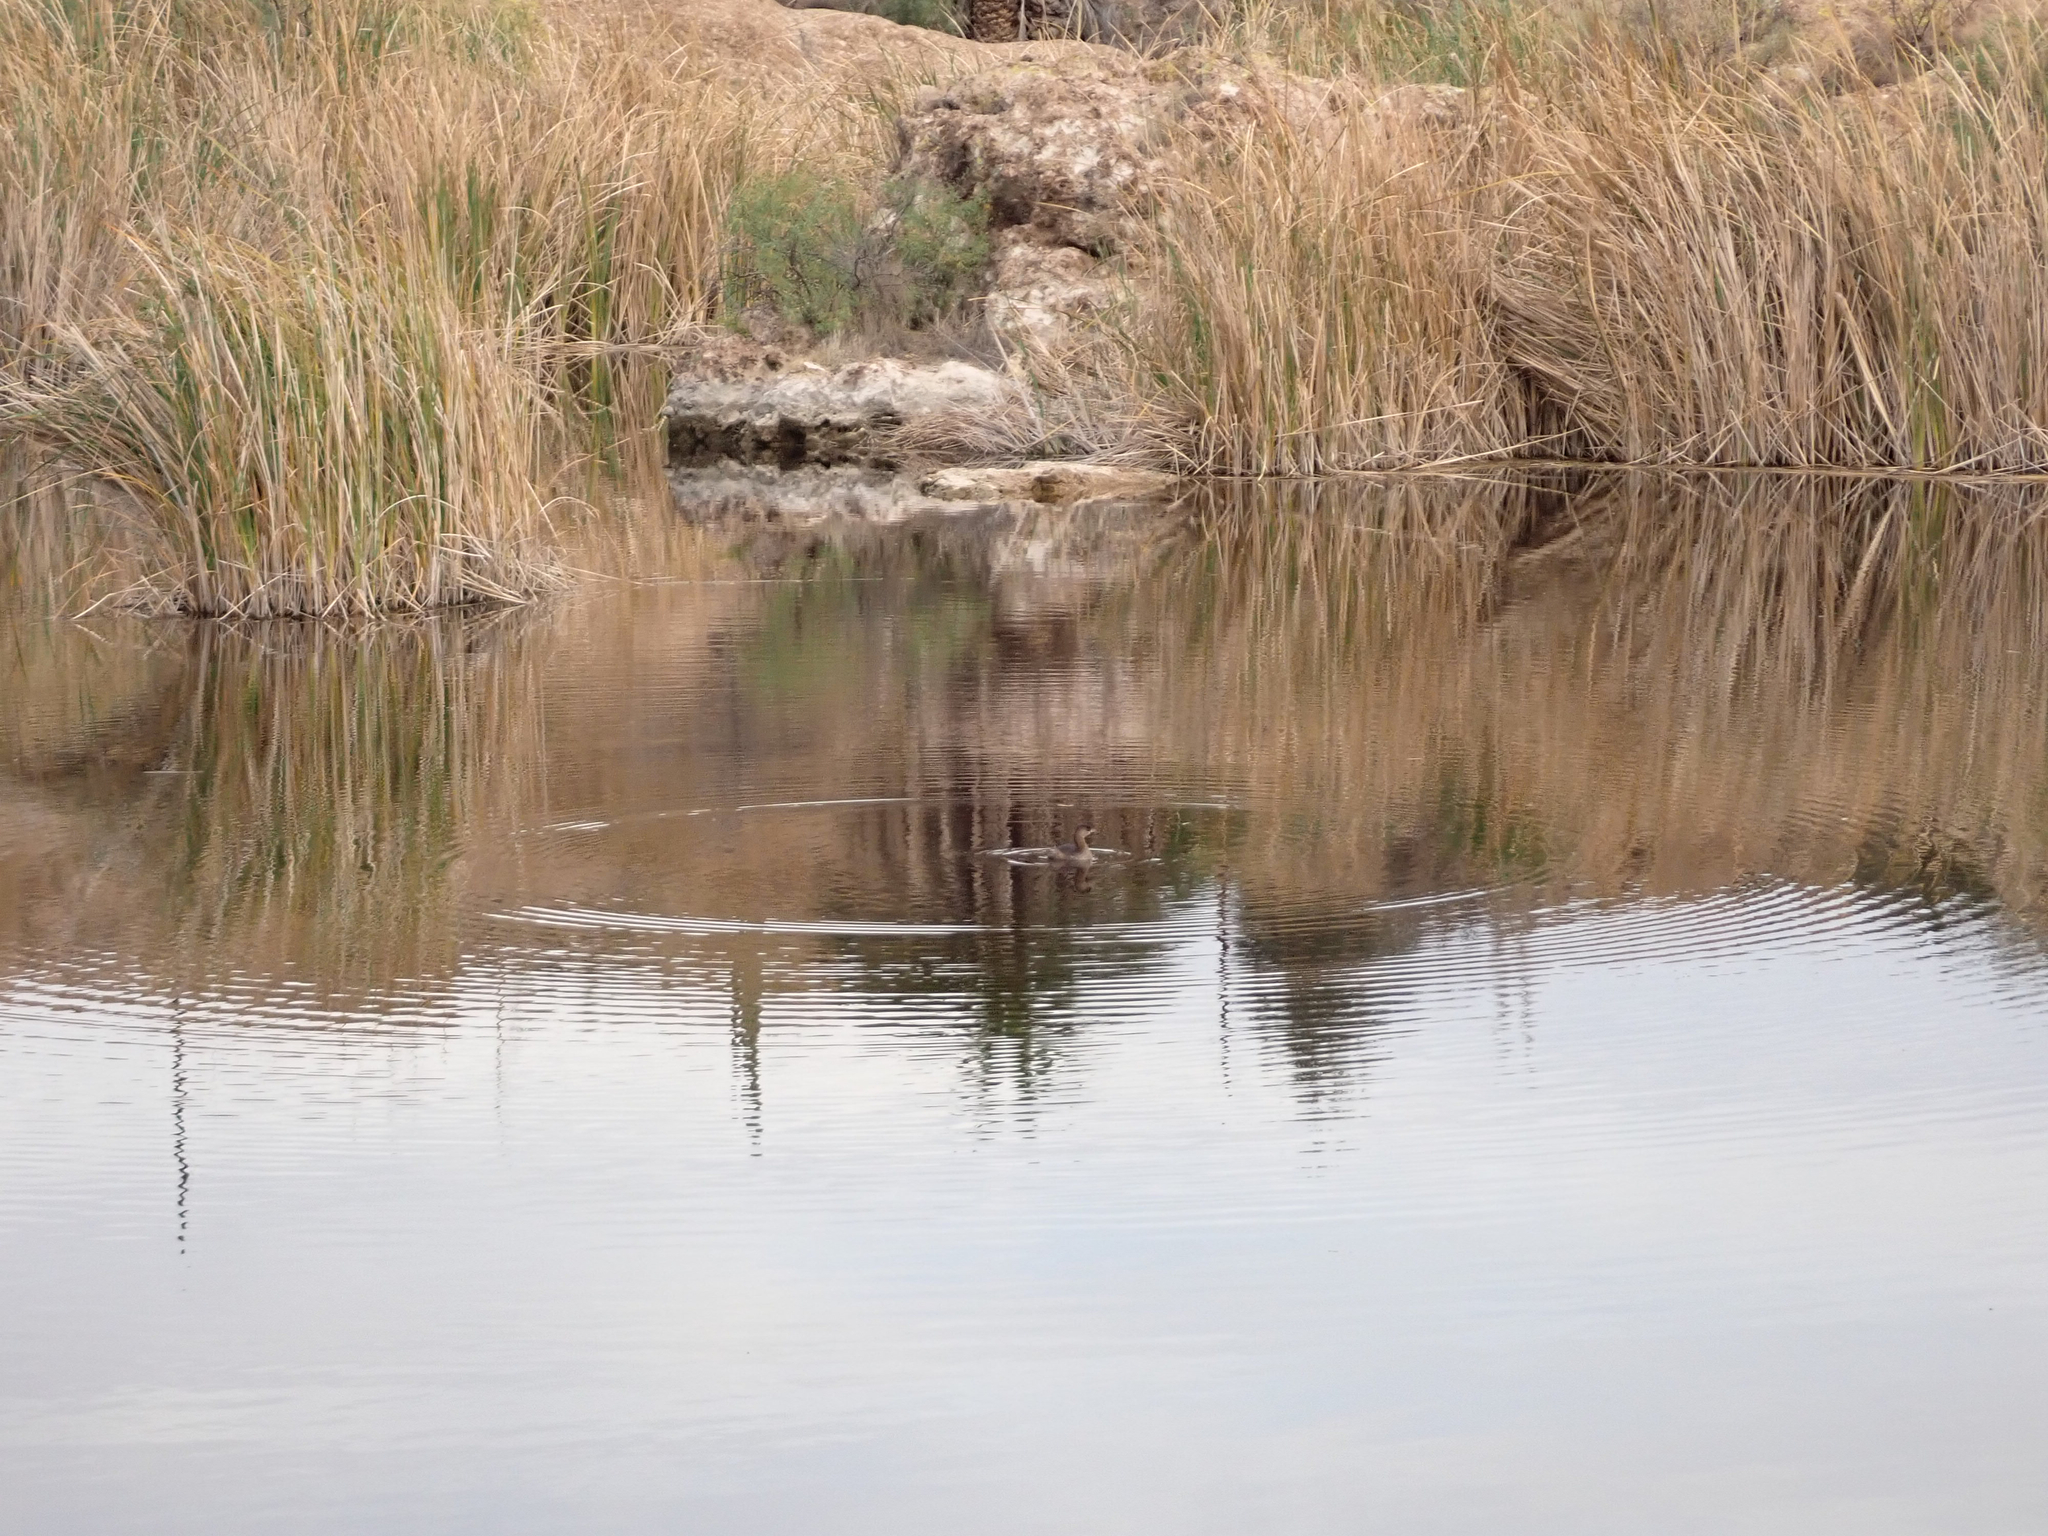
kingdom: Animalia
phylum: Chordata
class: Aves
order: Podicipediformes
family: Podicipedidae
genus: Podilymbus
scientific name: Podilymbus podiceps
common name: Pied-billed grebe
